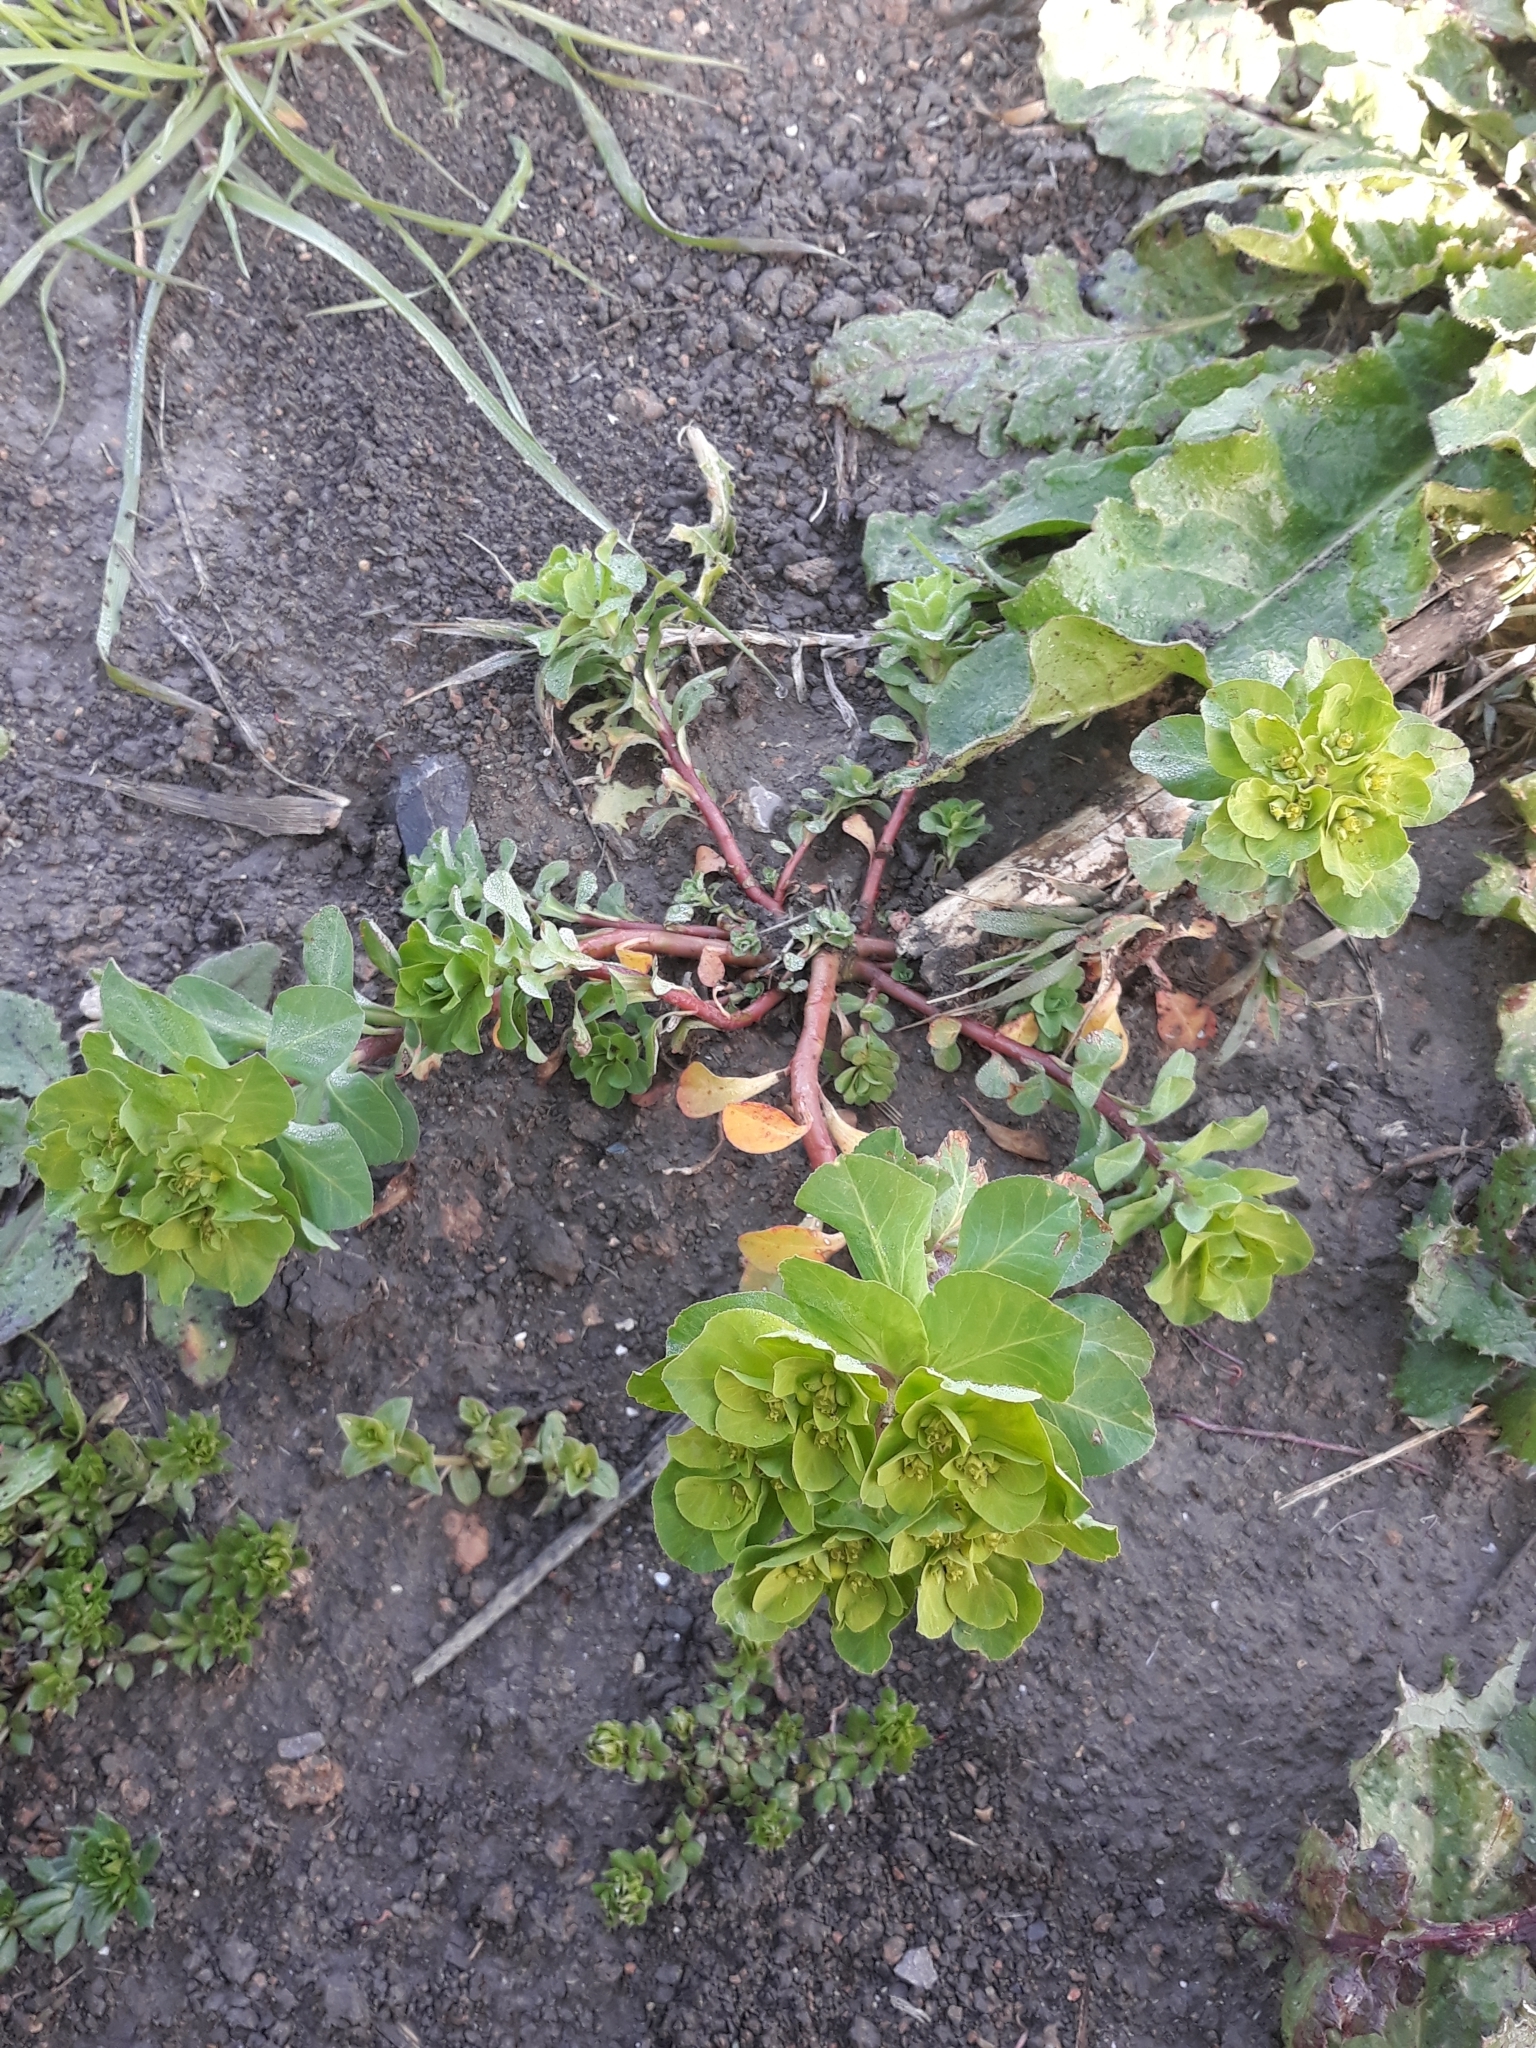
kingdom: Plantae
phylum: Tracheophyta
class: Magnoliopsida
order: Malpighiales
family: Euphorbiaceae
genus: Euphorbia
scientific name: Euphorbia helioscopia
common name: Sun spurge
